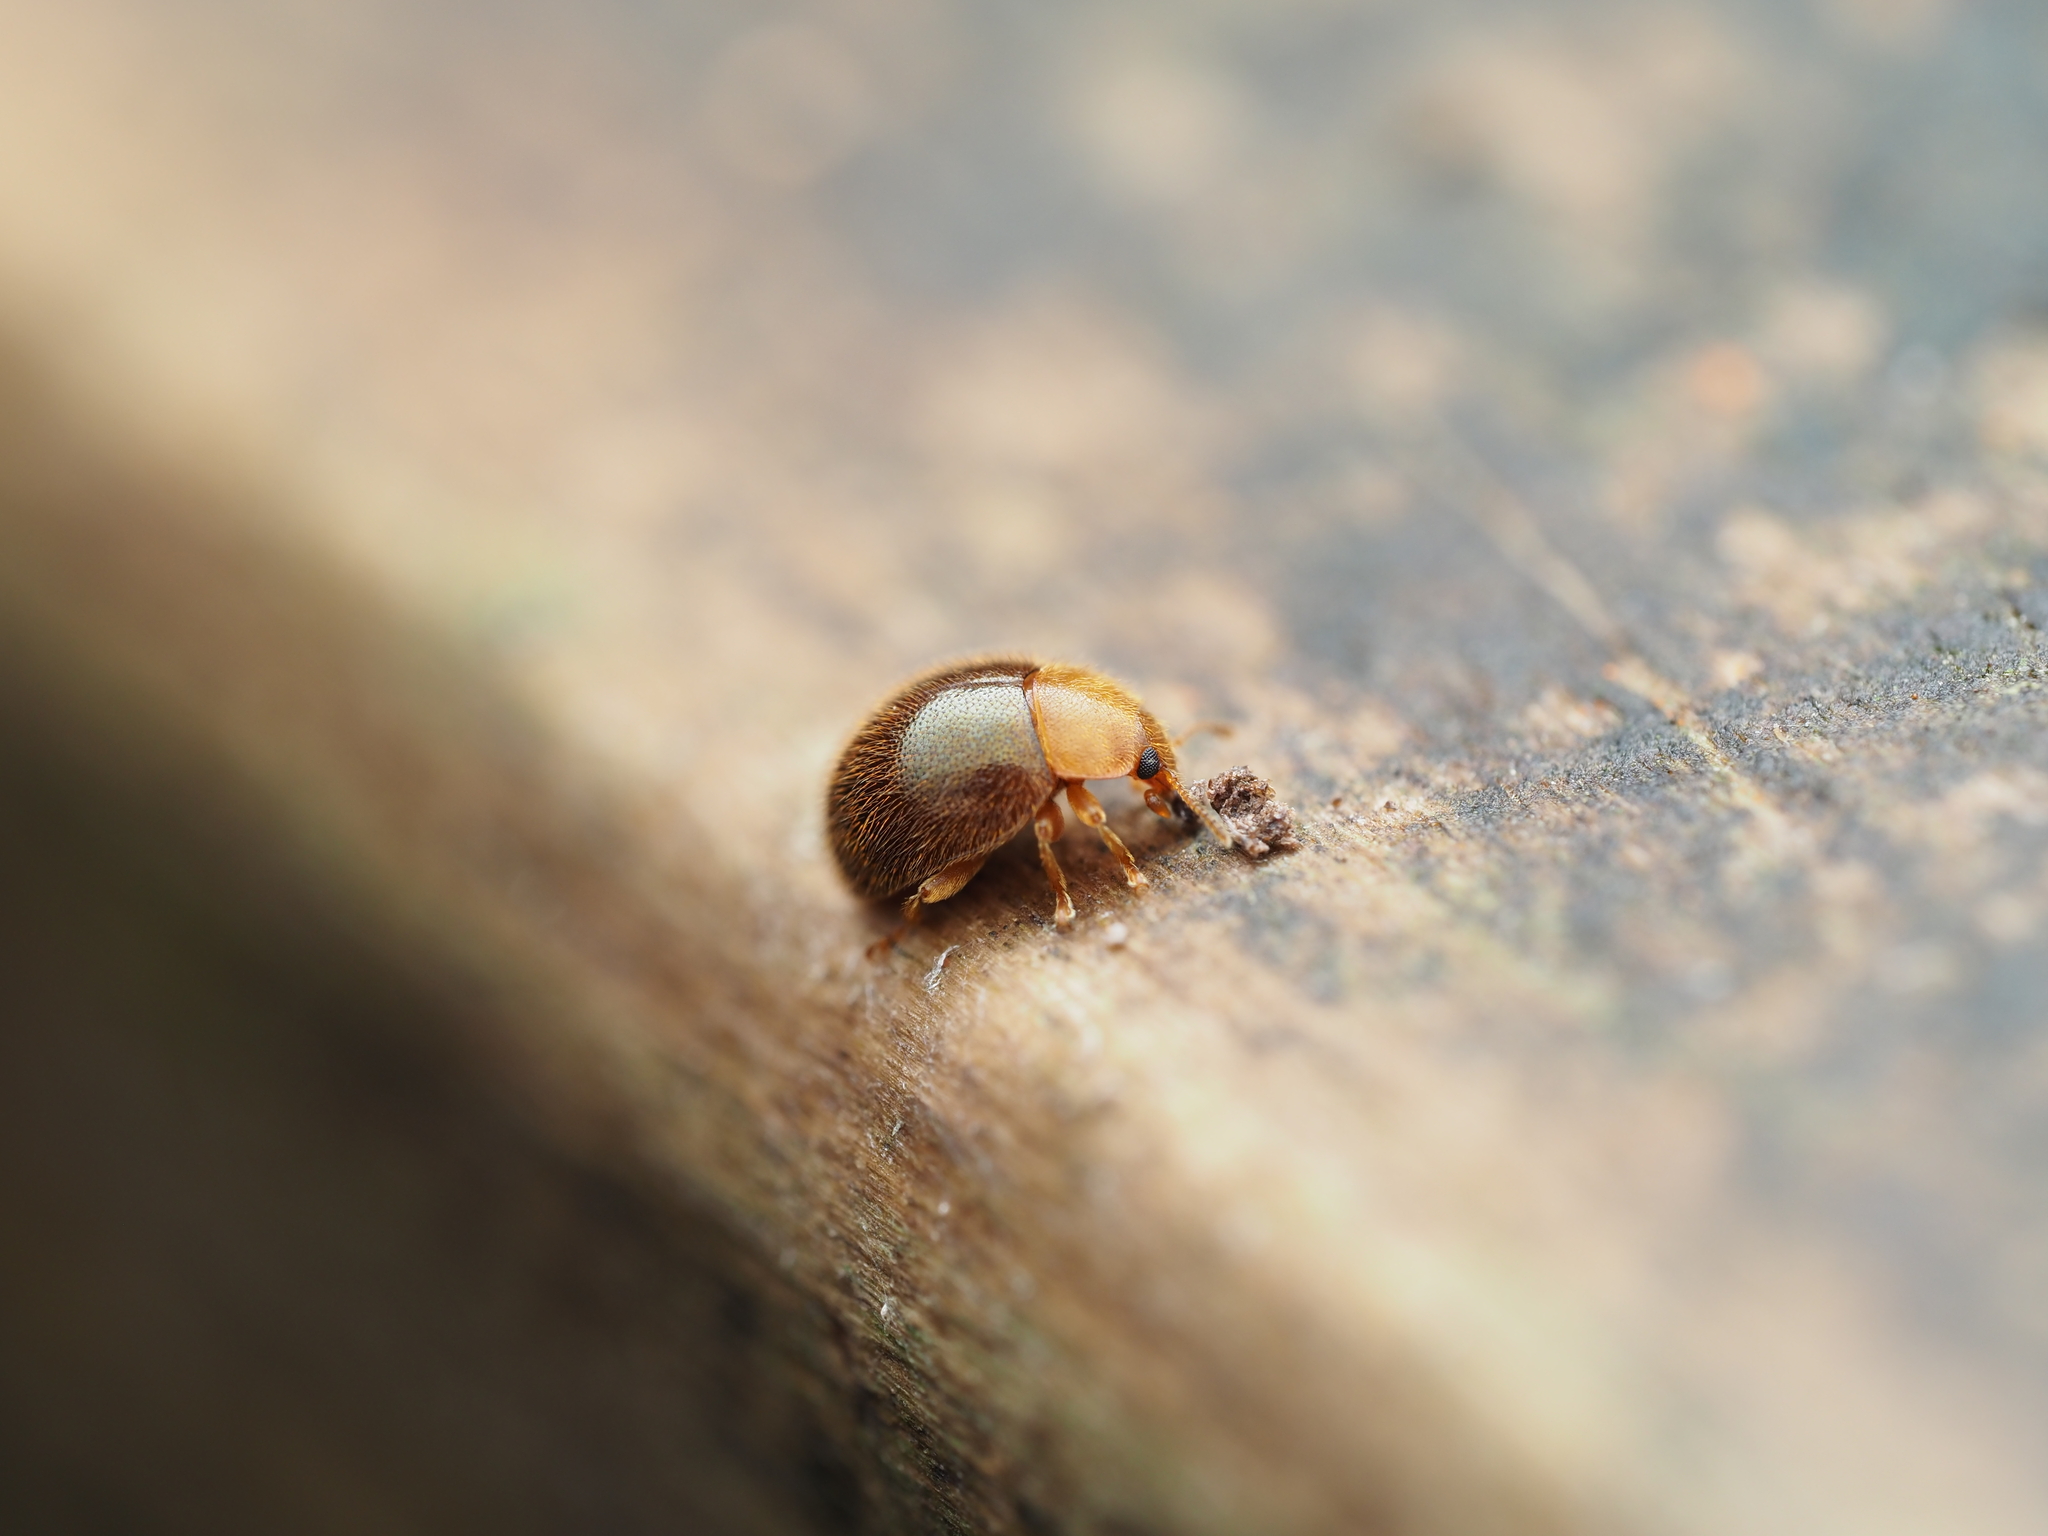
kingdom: Animalia
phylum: Arthropoda
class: Insecta
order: Coleoptera
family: Coccinellidae
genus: Adoxellus
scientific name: Adoxellus
